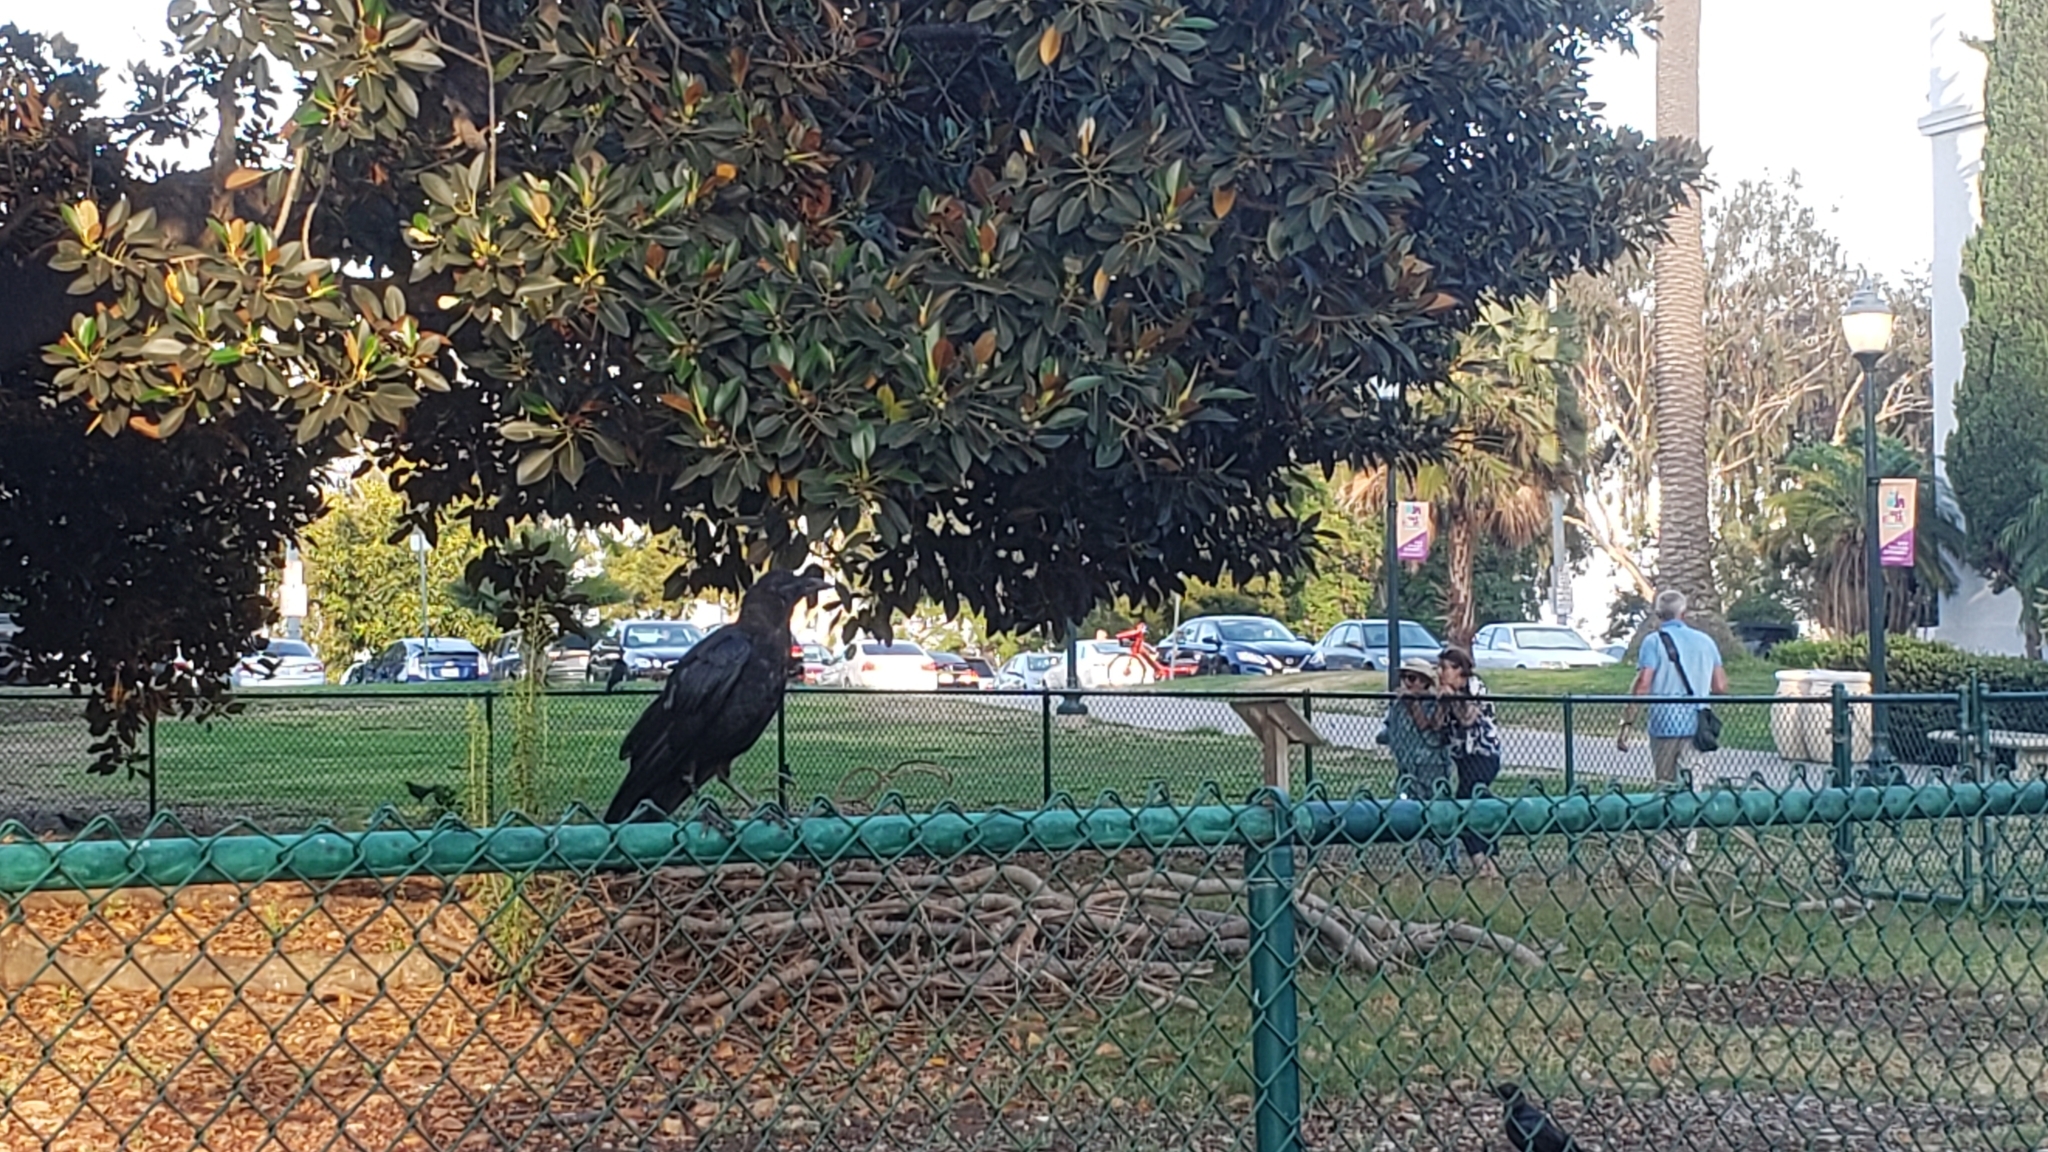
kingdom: Animalia
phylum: Chordata
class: Aves
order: Passeriformes
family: Corvidae
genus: Corvus
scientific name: Corvus brachyrhynchos
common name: American crow
